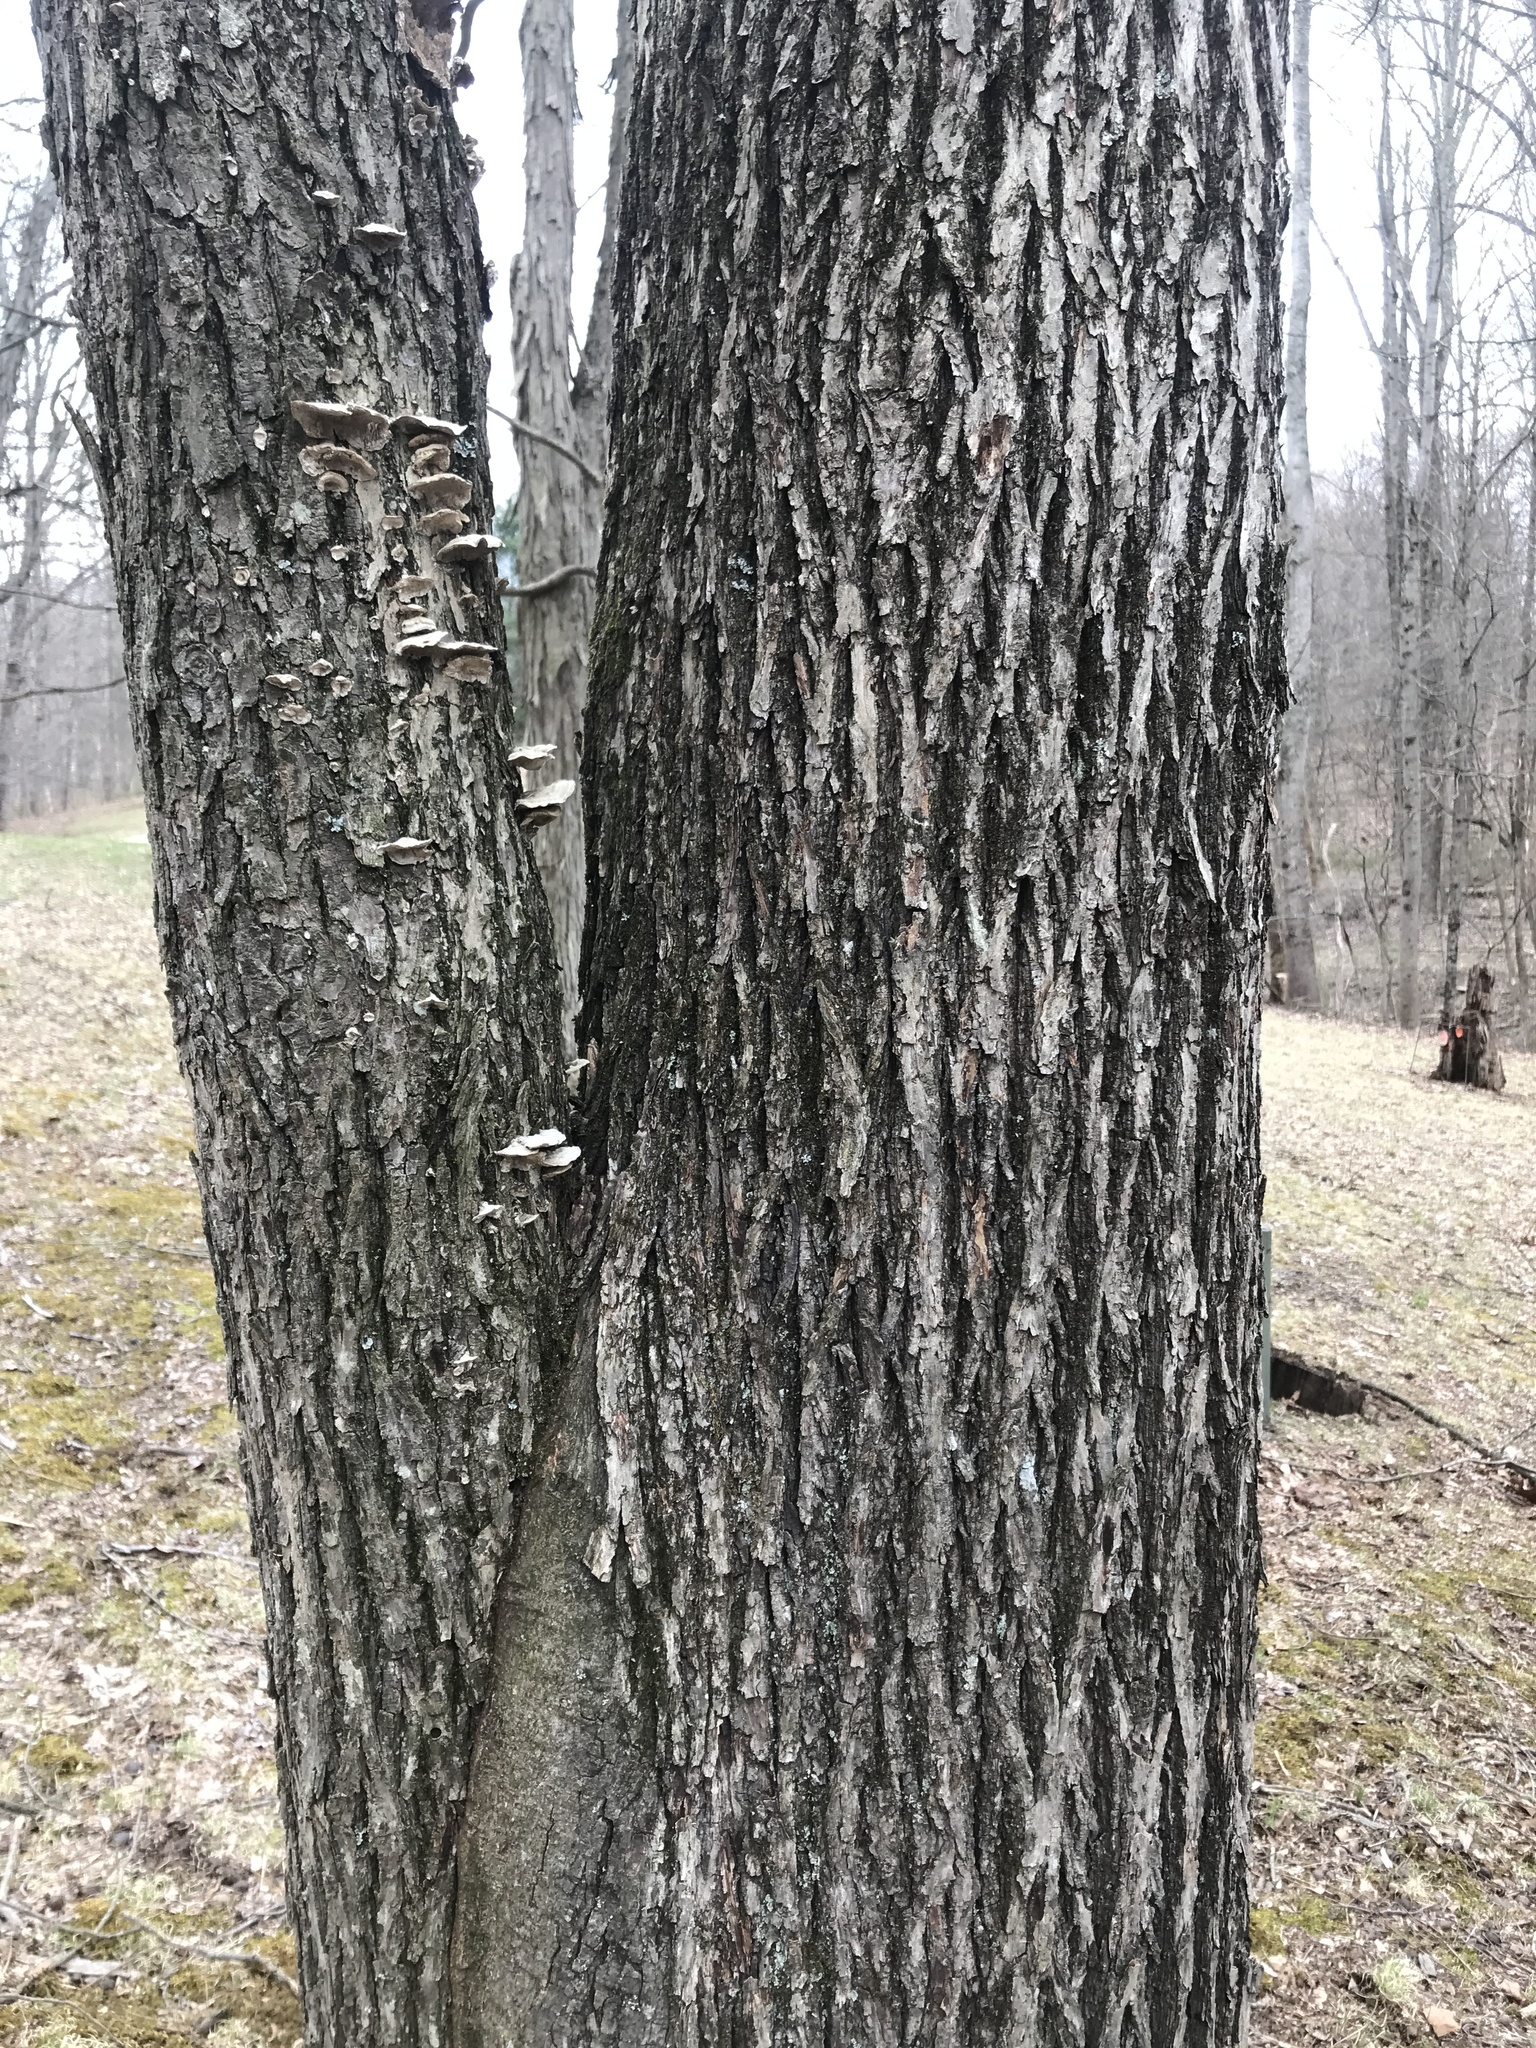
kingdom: Plantae
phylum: Tracheophyta
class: Magnoliopsida
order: Fagales
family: Juglandaceae
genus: Carya
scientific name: Carya cordiformis
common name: Bitternut hickory
